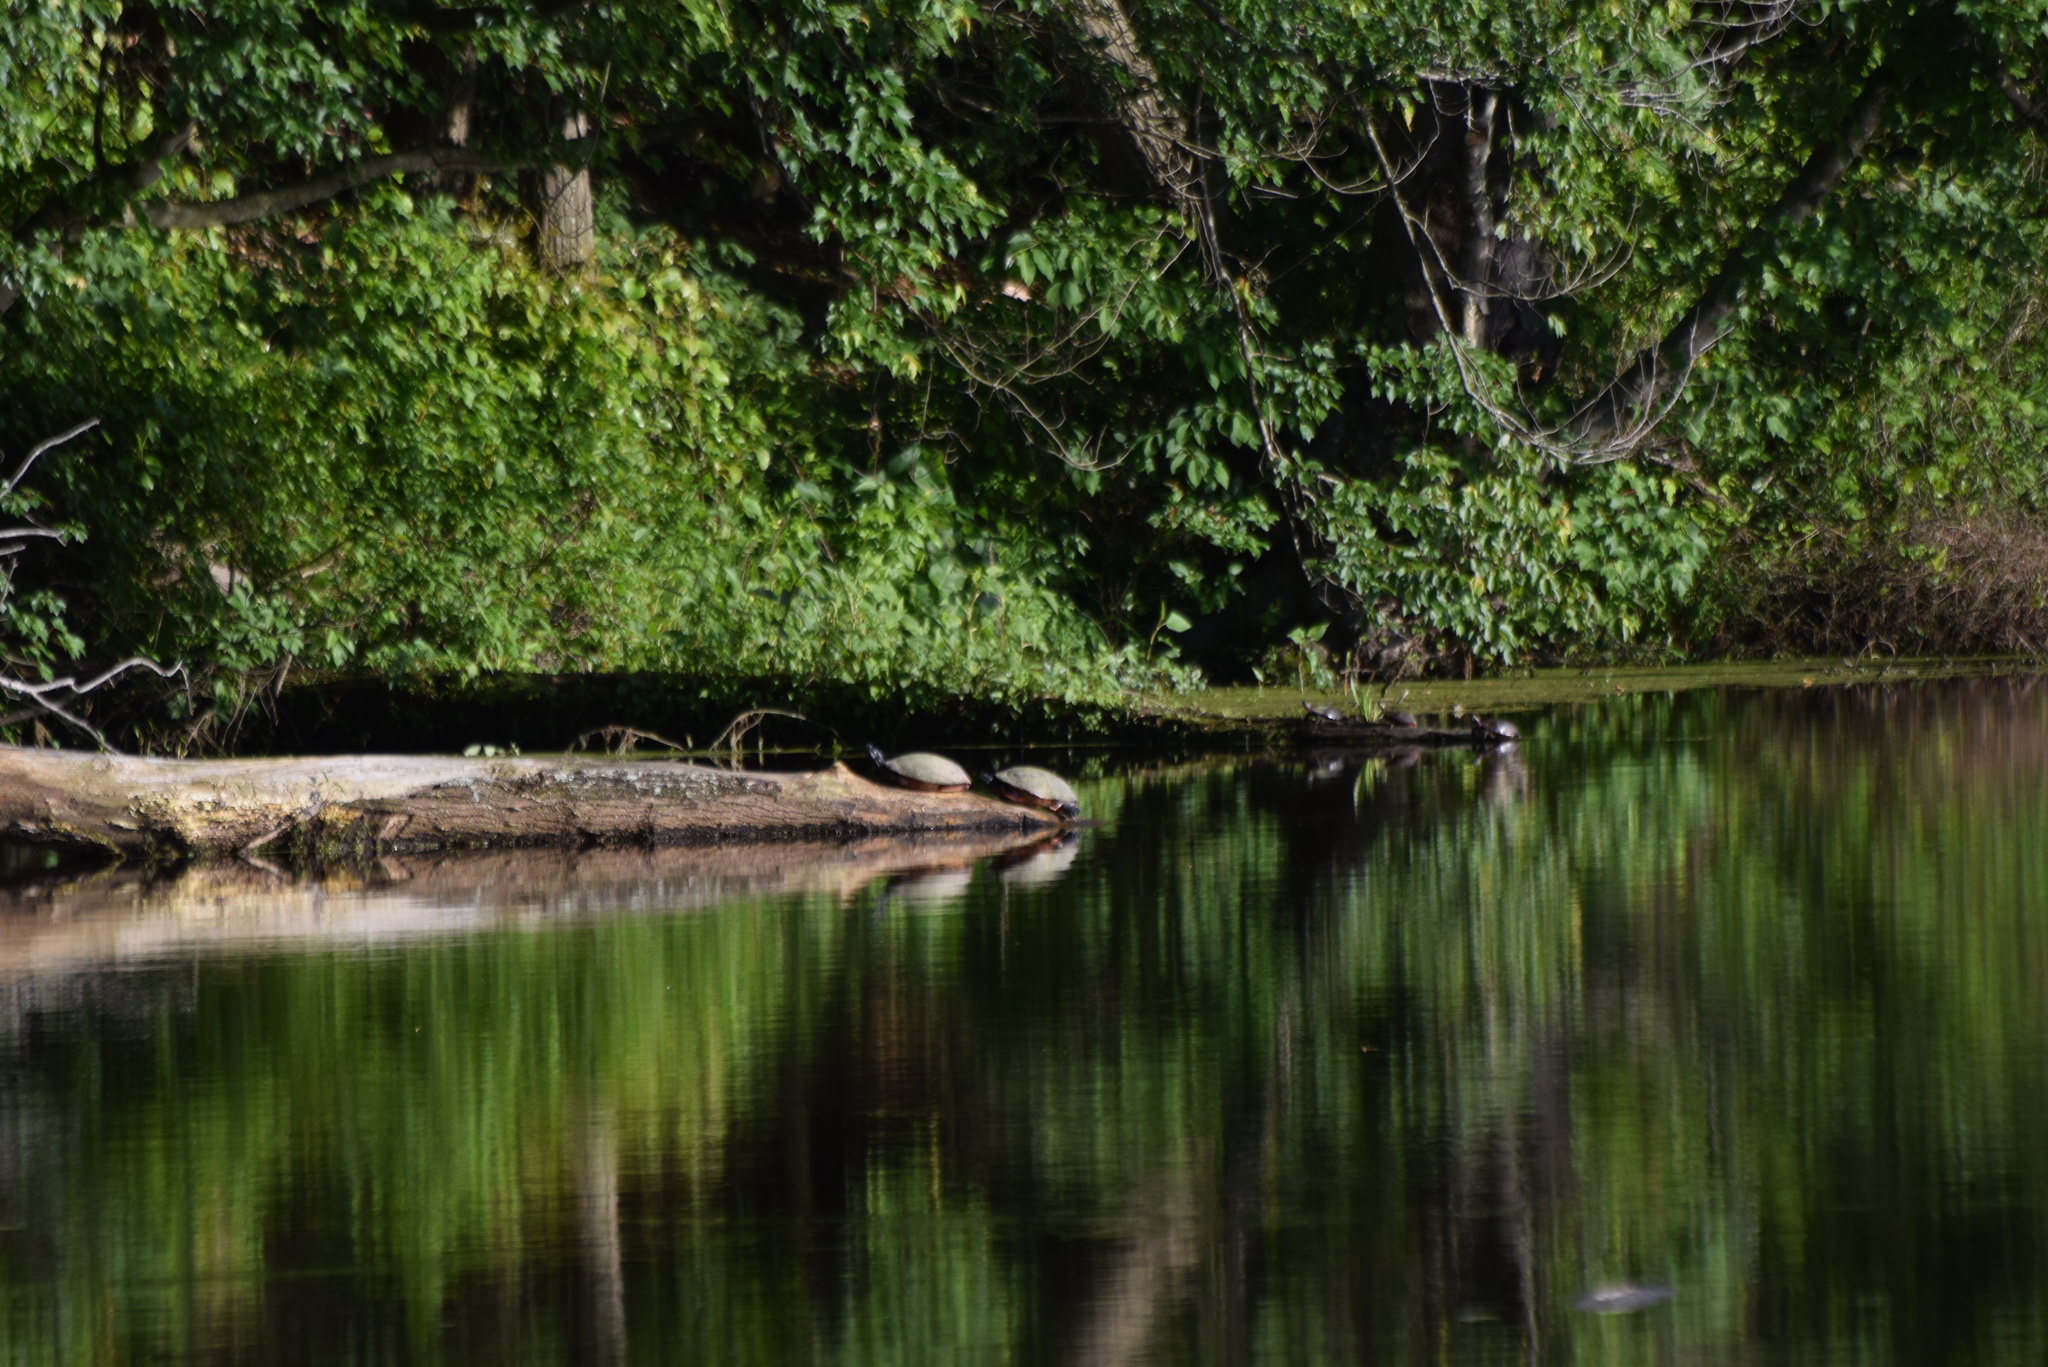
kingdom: Animalia
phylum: Chordata
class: Testudines
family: Emydidae
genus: Pseudemys
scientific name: Pseudemys rubriventris
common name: American red-bellied turtle
